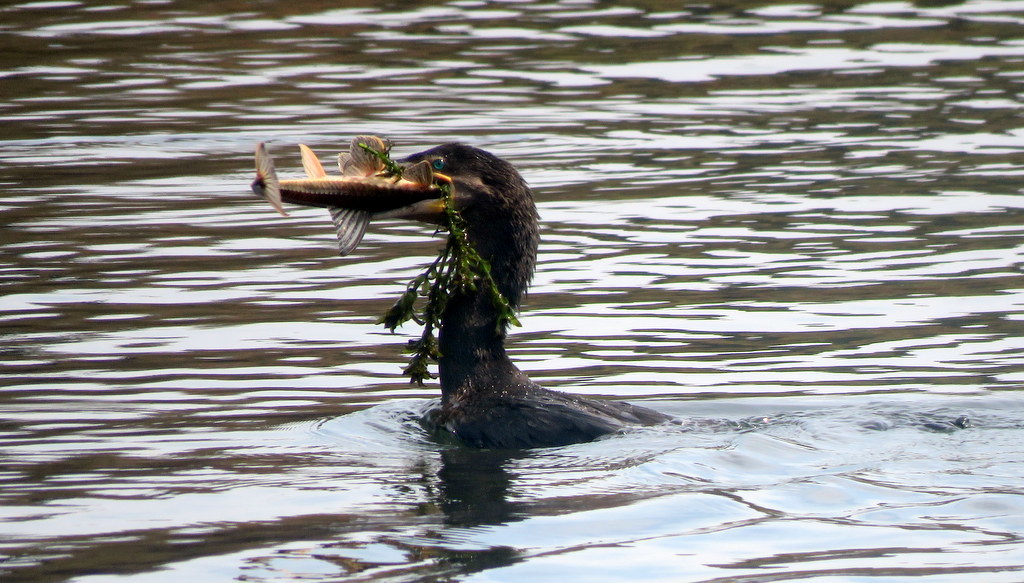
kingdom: Animalia
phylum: Chordata
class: Aves
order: Suliformes
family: Phalacrocoracidae
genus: Phalacrocorax
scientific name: Phalacrocorax brasilianus
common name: Neotropic cormorant
